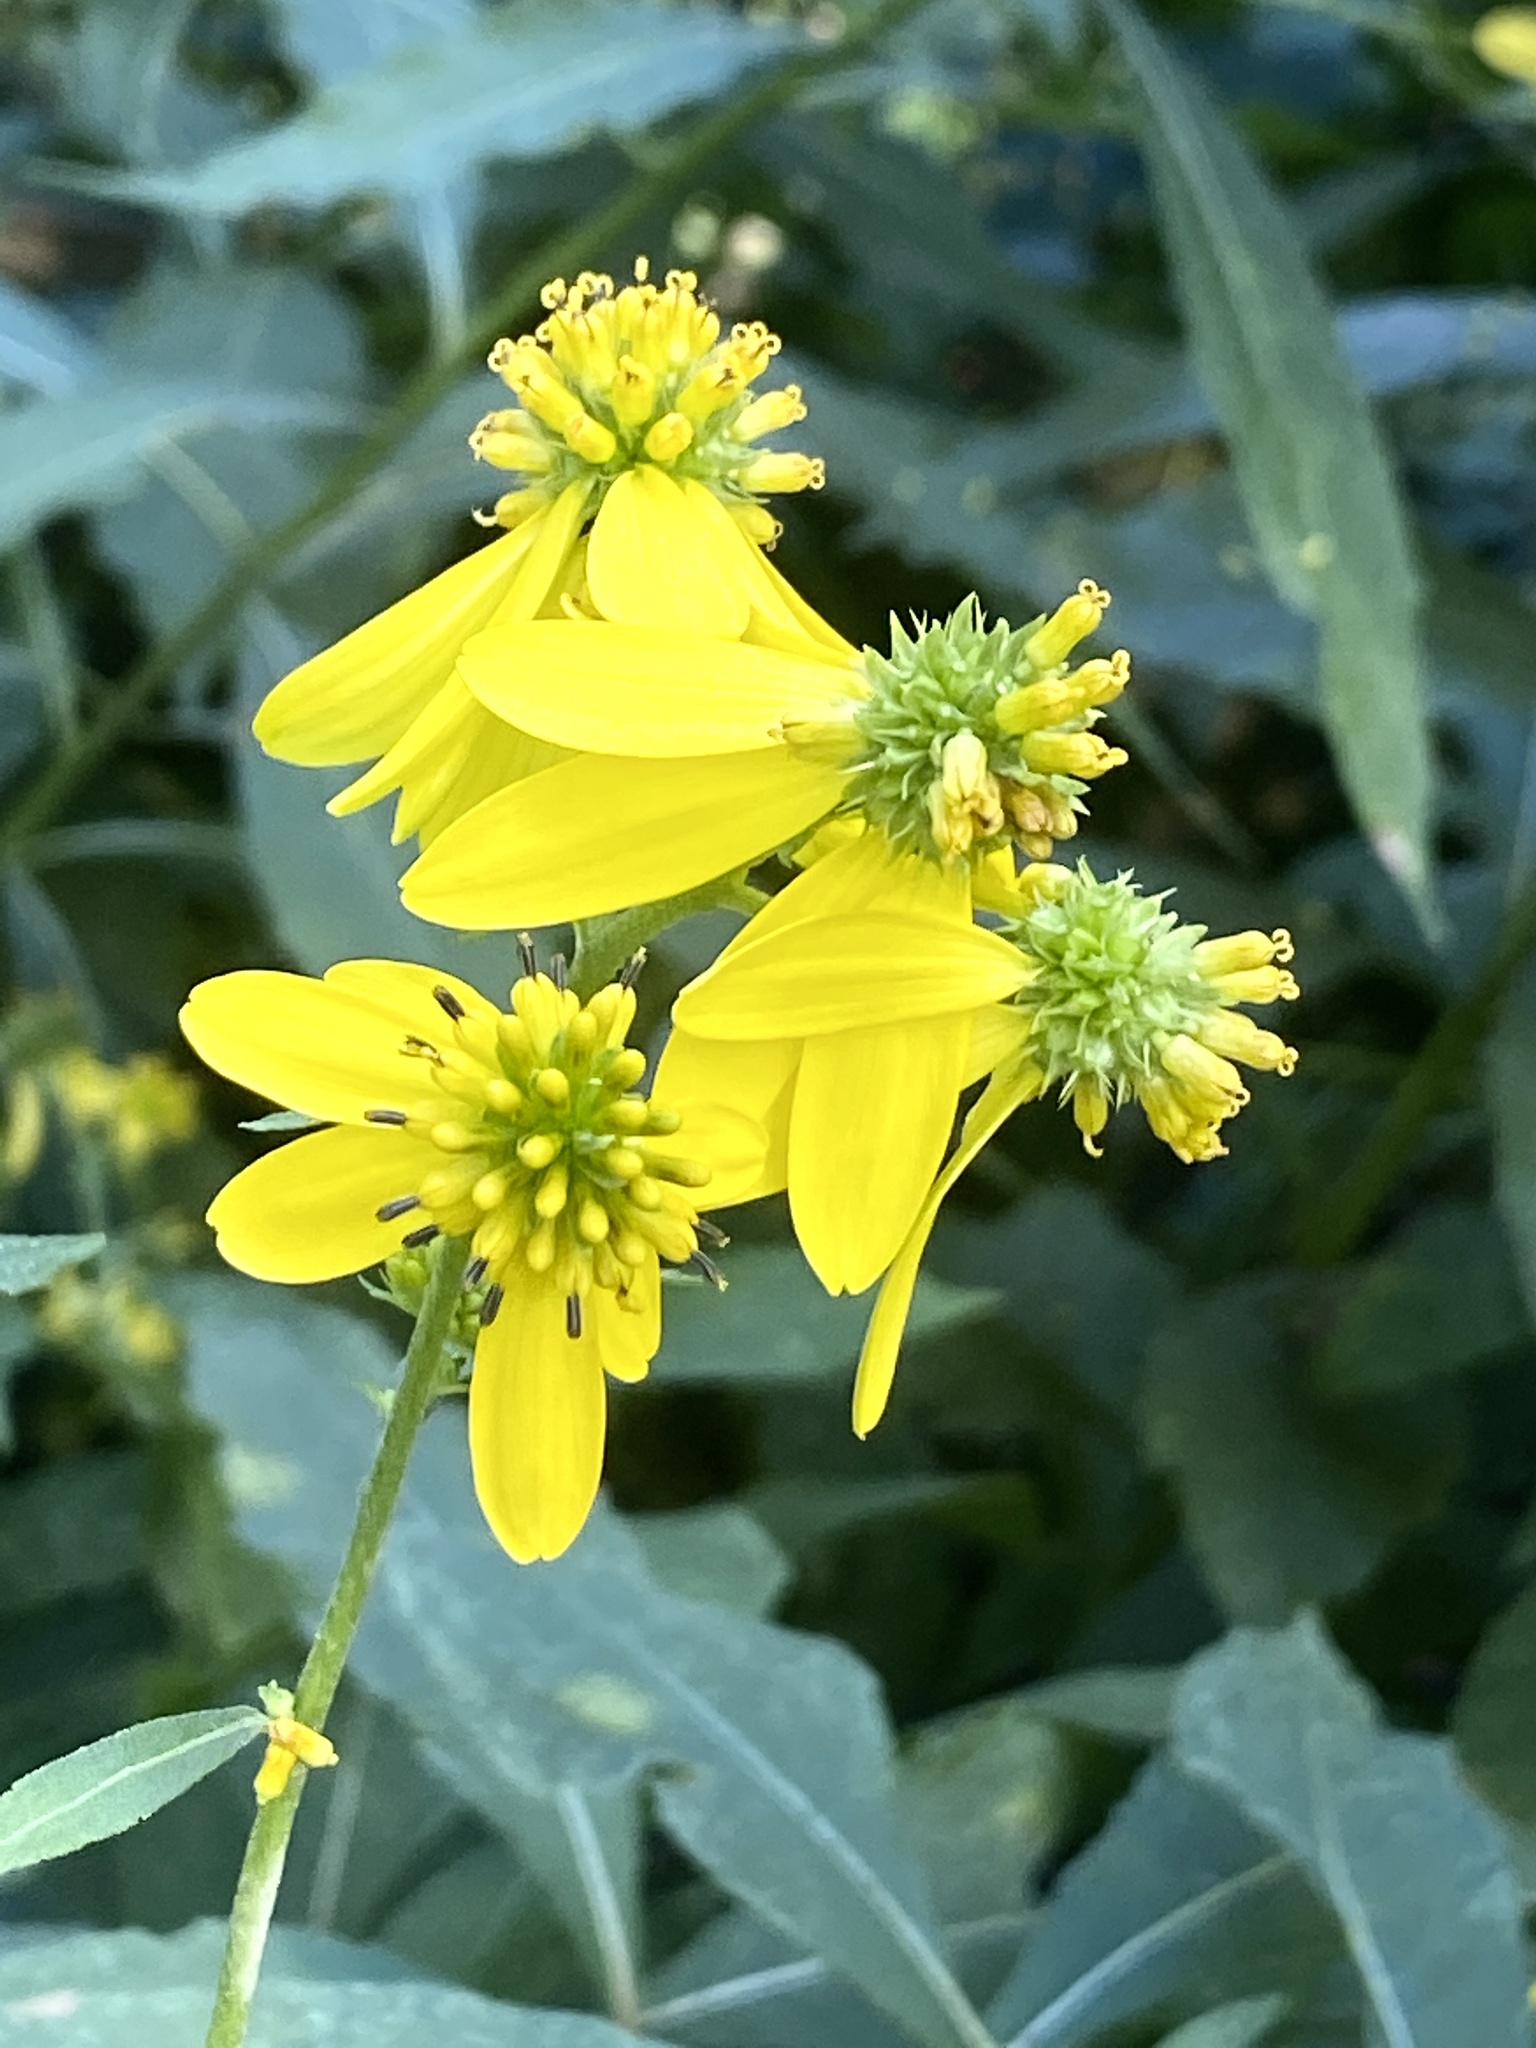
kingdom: Plantae
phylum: Tracheophyta
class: Magnoliopsida
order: Asterales
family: Asteraceae
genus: Verbesina
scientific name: Verbesina alternifolia
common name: Wingstem
